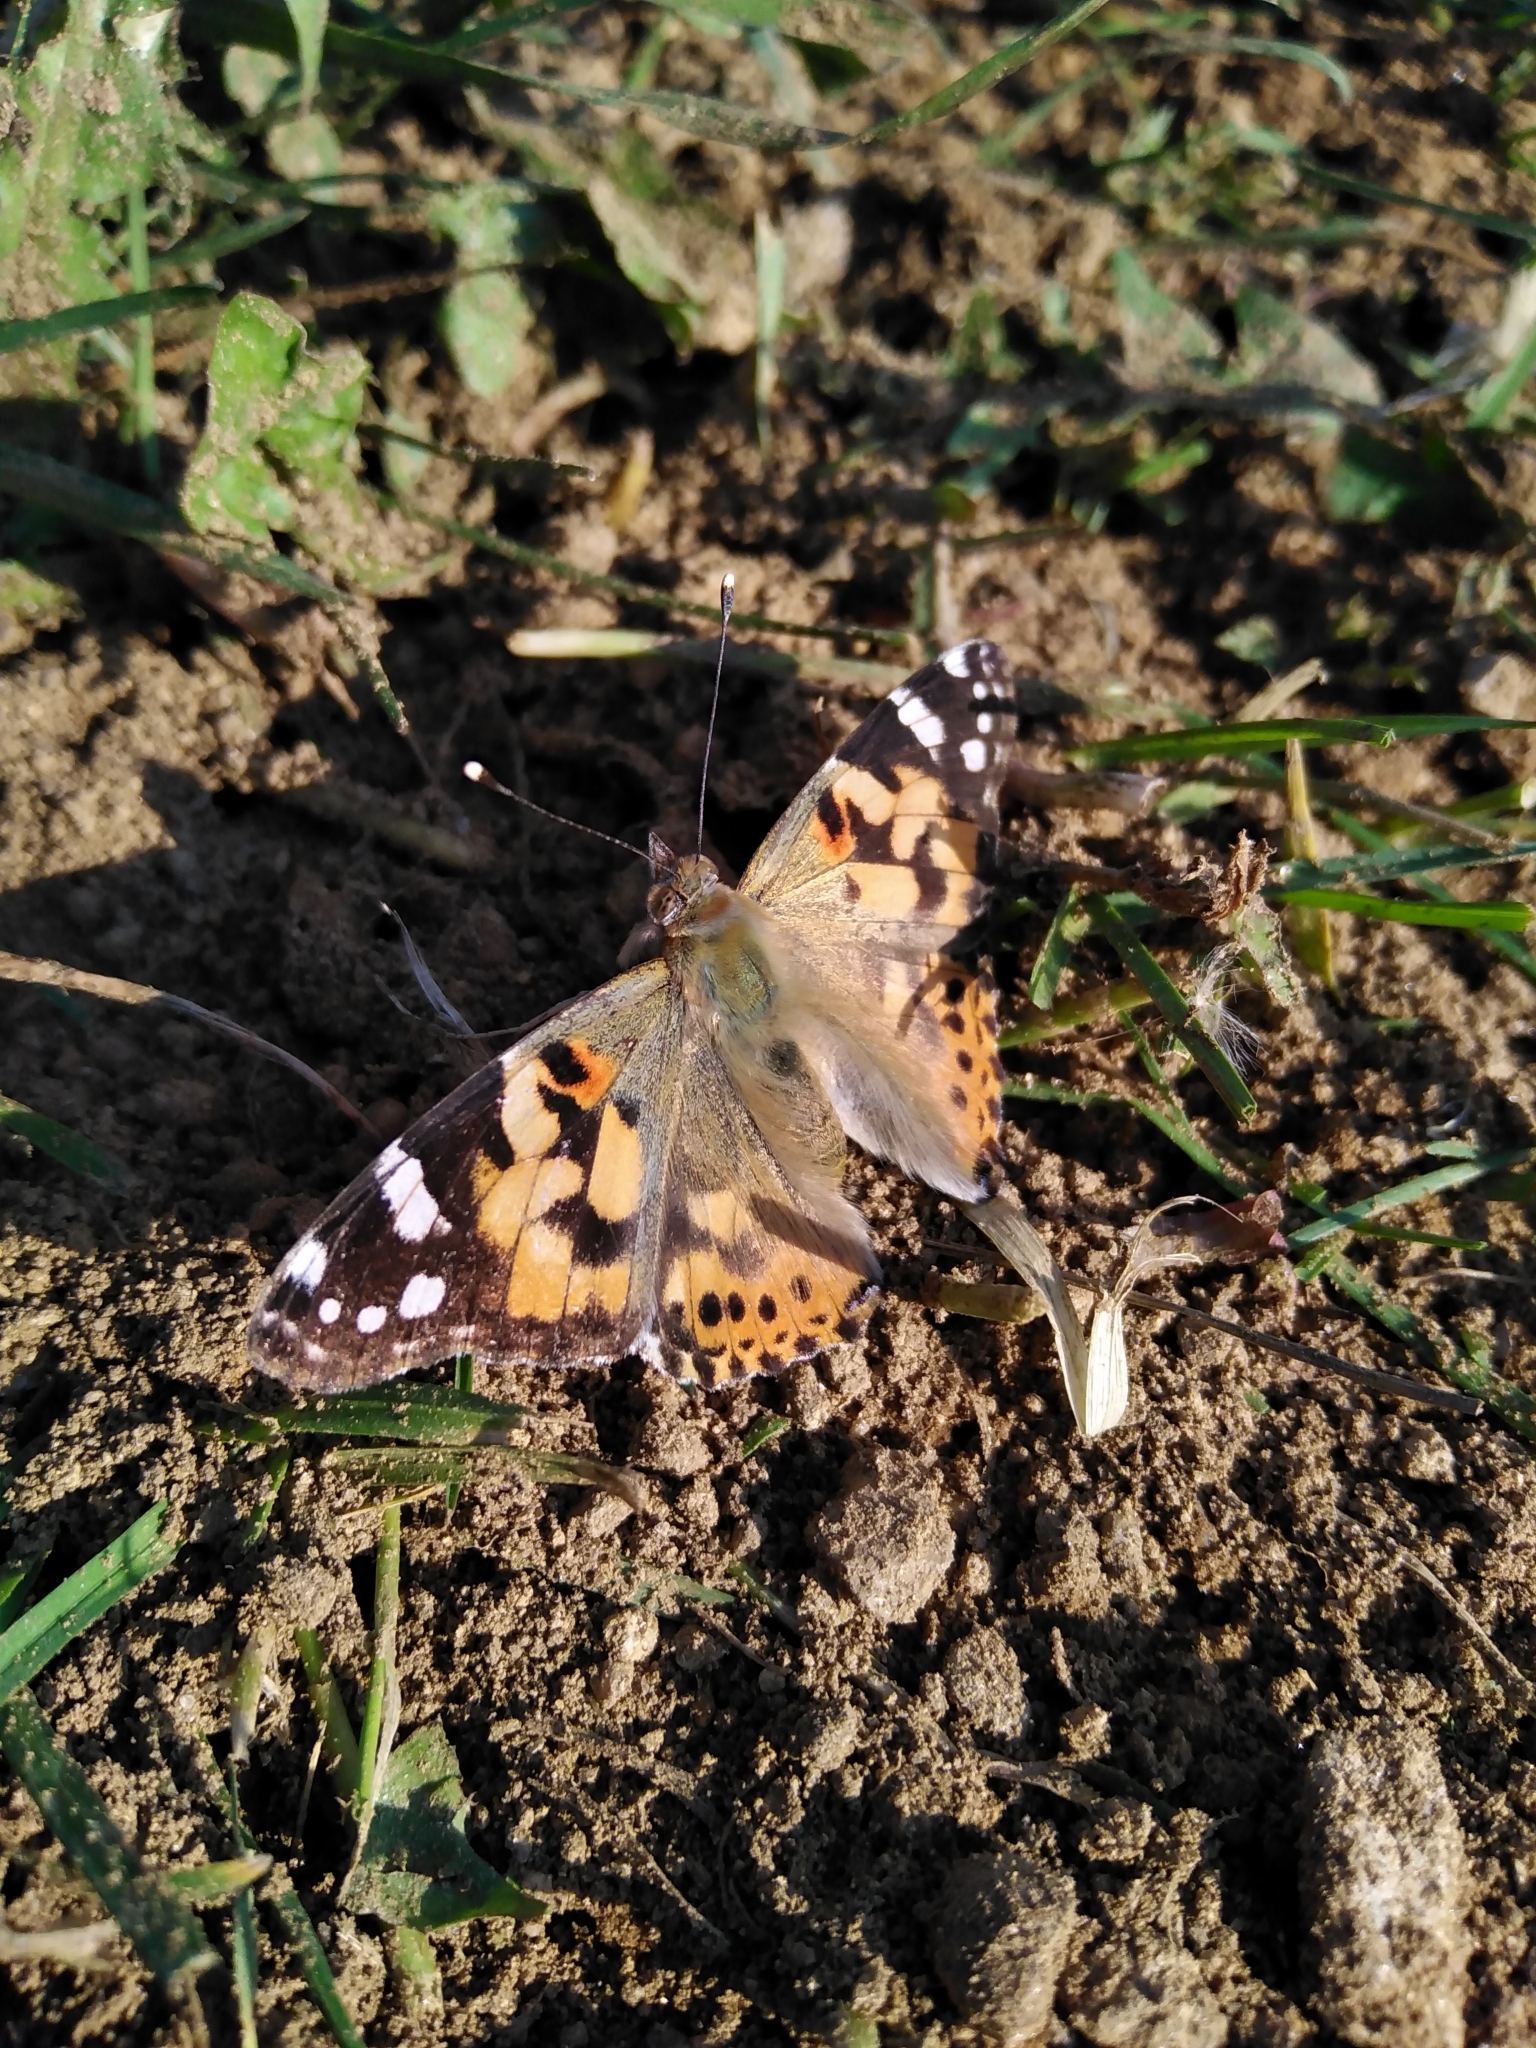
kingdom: Animalia
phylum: Arthropoda
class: Insecta
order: Lepidoptera
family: Nymphalidae
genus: Vanessa
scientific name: Vanessa cardui
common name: Painted lady
